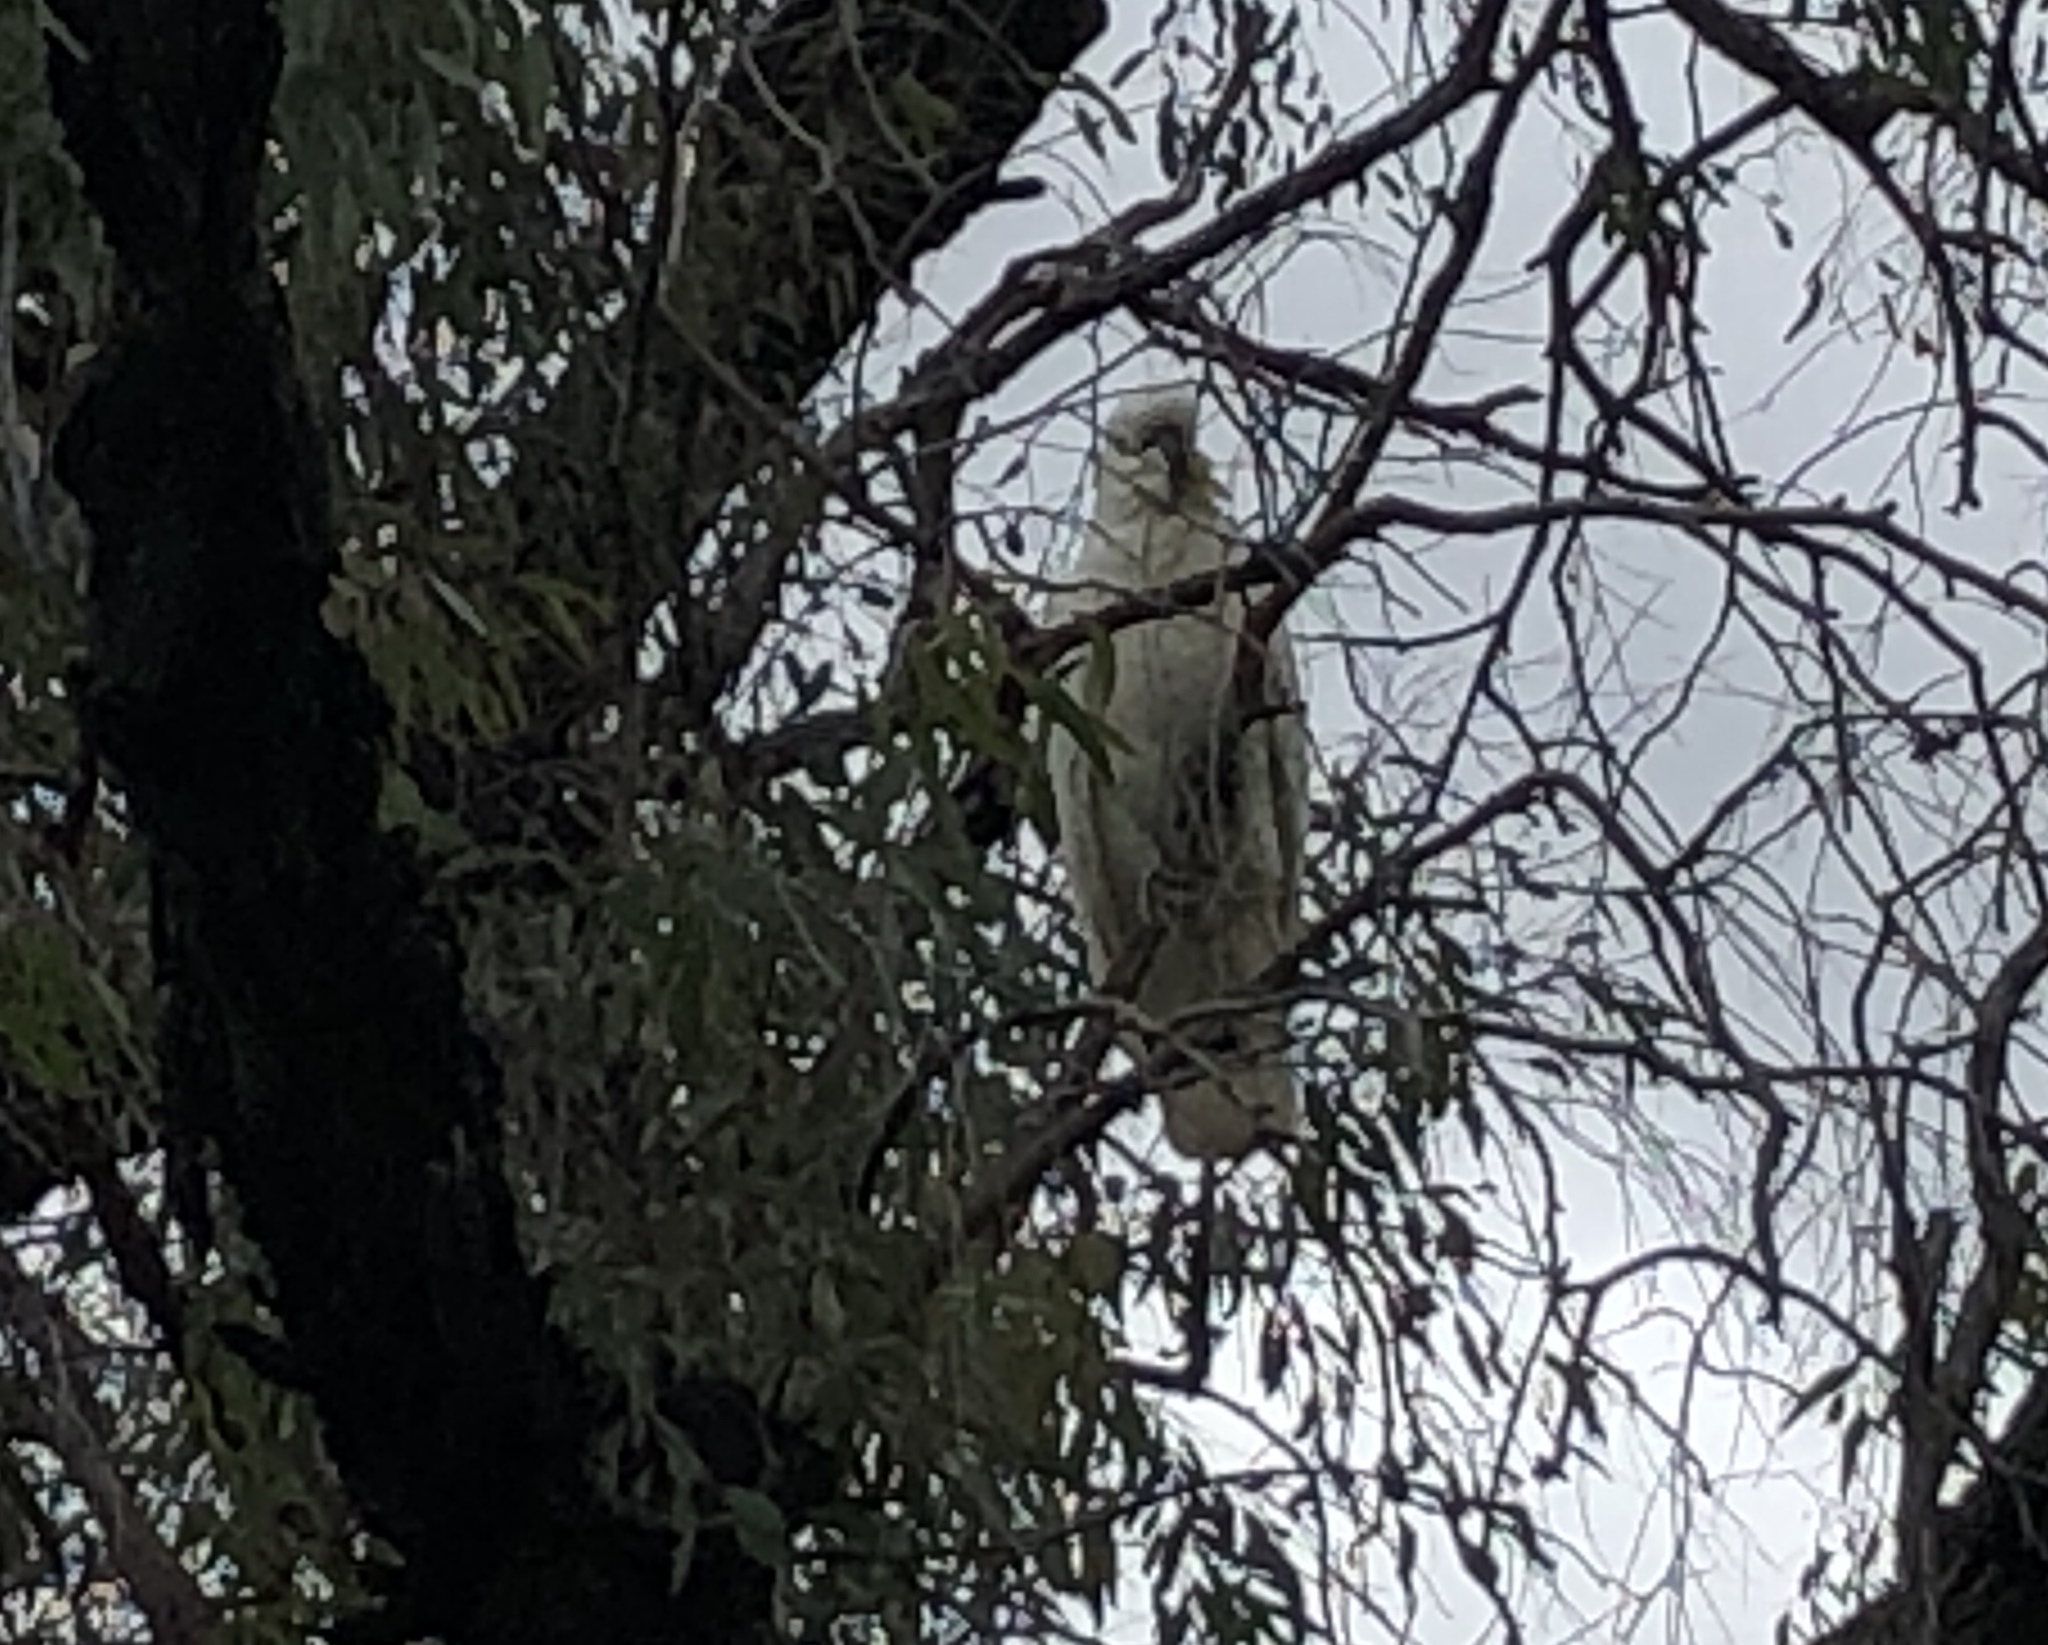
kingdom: Animalia
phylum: Chordata
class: Aves
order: Psittaciformes
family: Psittacidae
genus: Cacatua
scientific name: Cacatua galerita
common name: Sulphur-crested cockatoo
